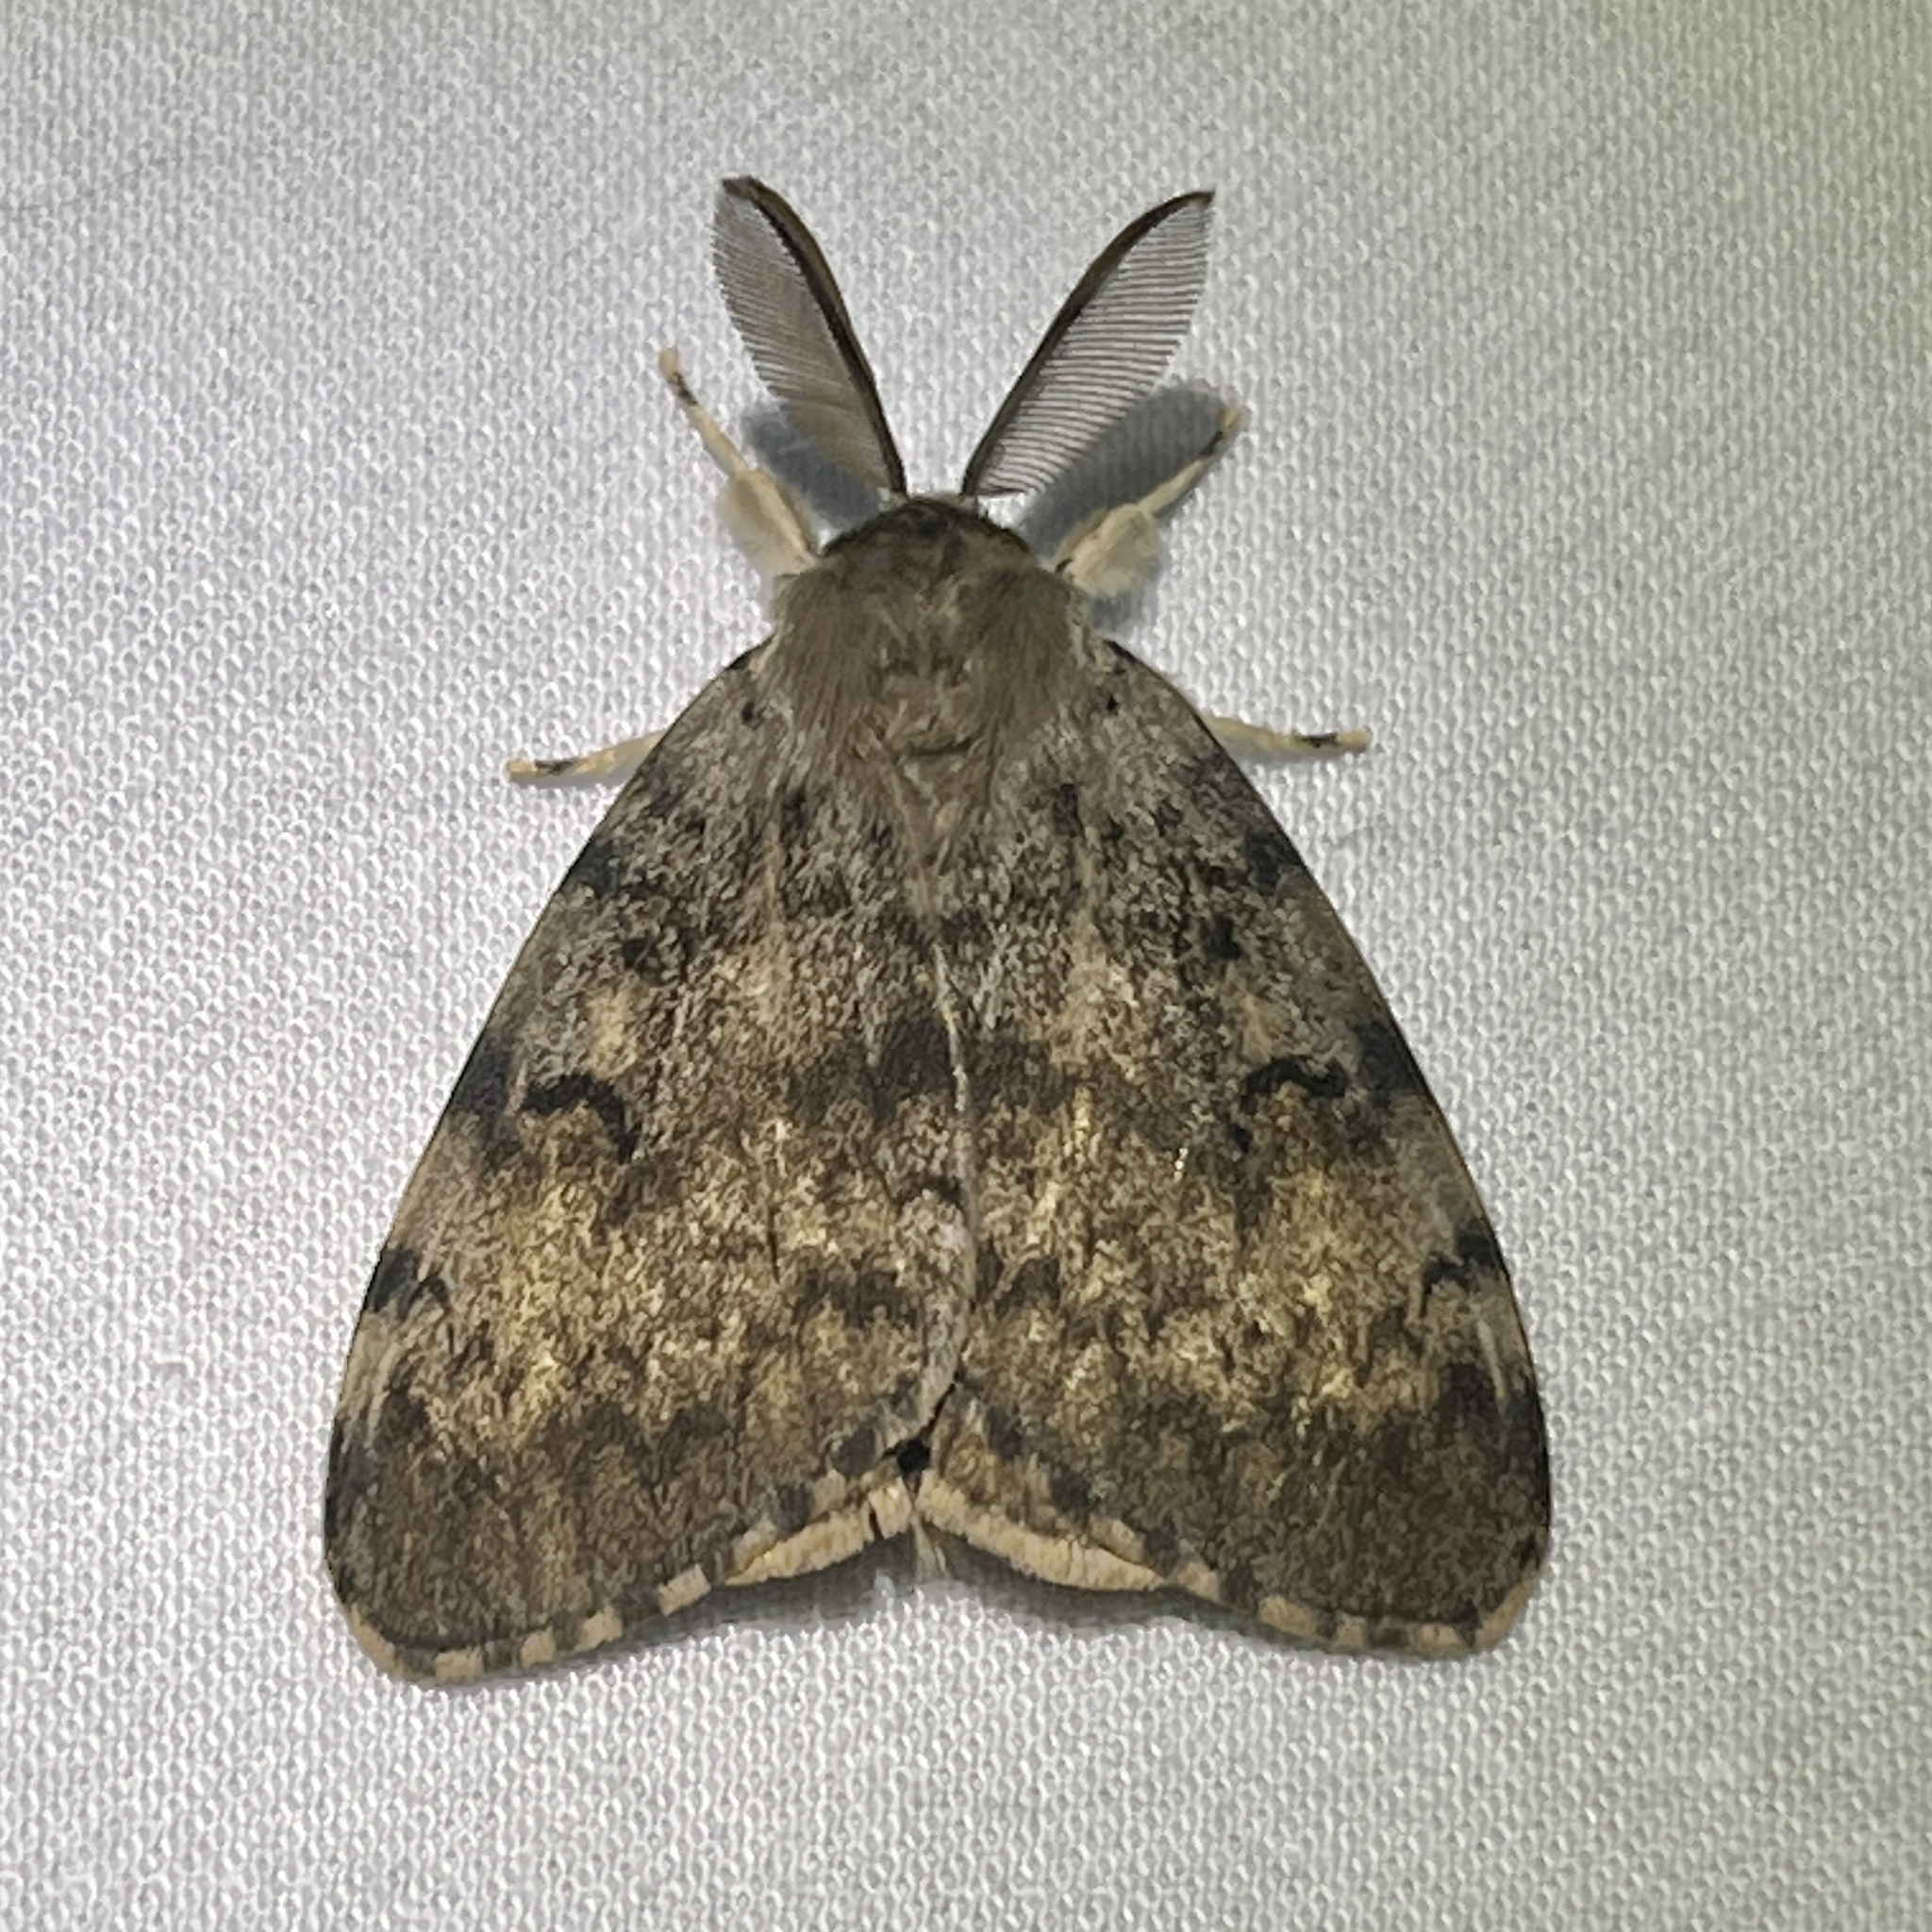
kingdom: Animalia
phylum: Arthropoda
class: Insecta
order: Lepidoptera
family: Erebidae
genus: Lymantria
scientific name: Lymantria dispar
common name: Gypsy moth
